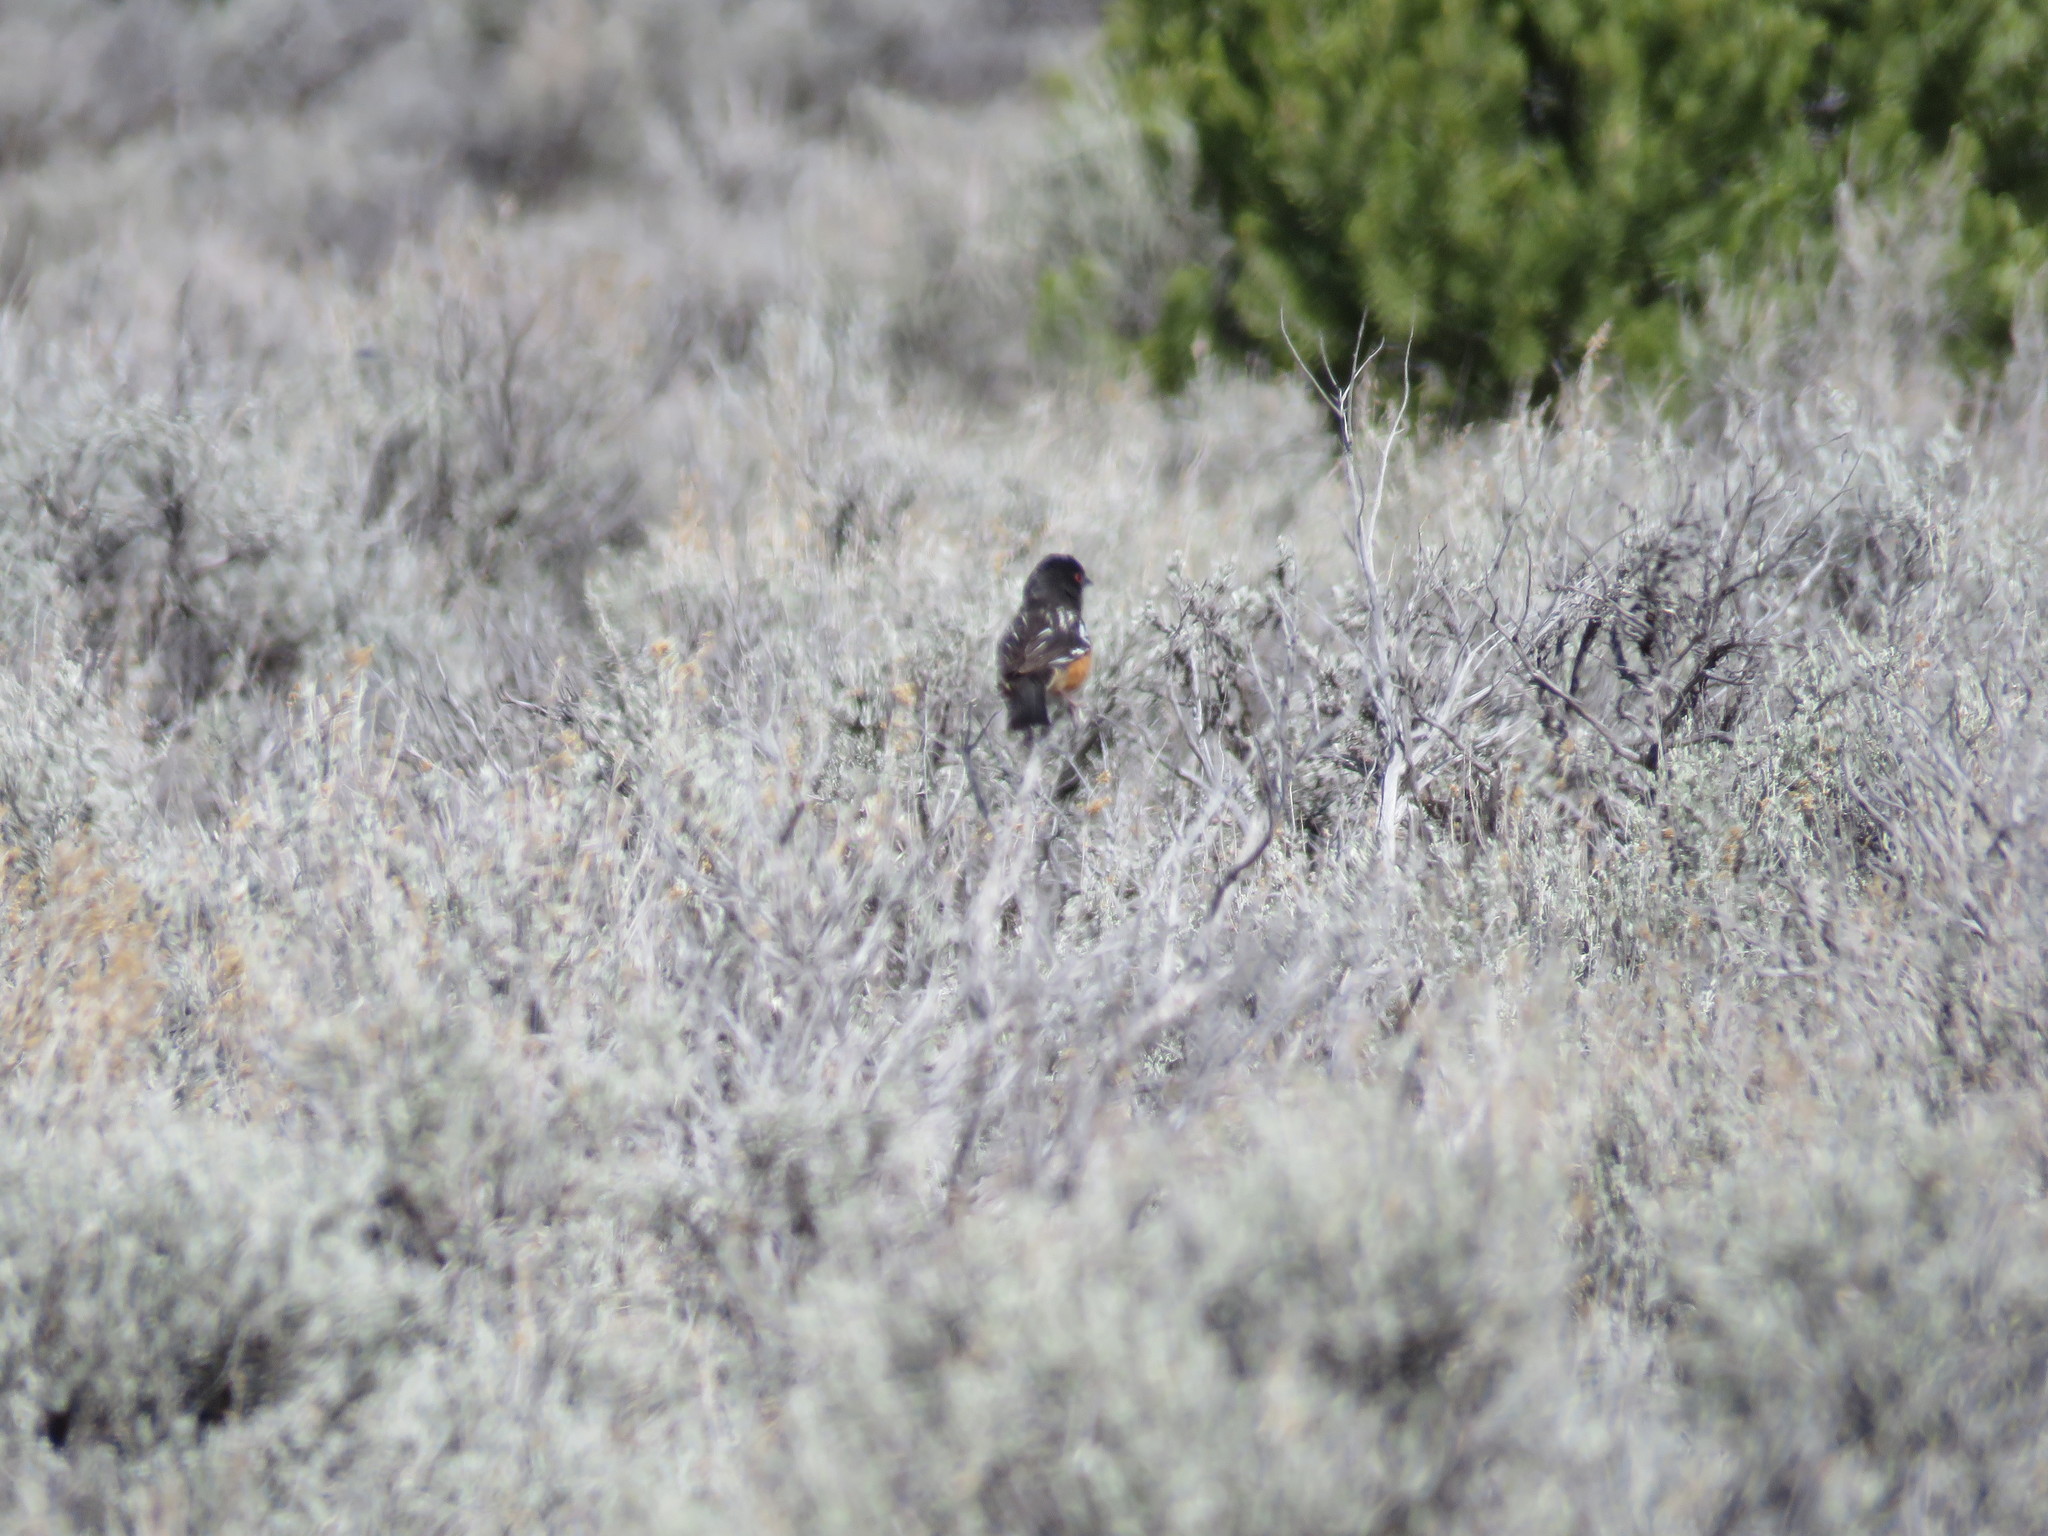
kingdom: Animalia
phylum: Chordata
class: Aves
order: Passeriformes
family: Passerellidae
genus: Pipilo
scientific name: Pipilo maculatus
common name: Spotted towhee
